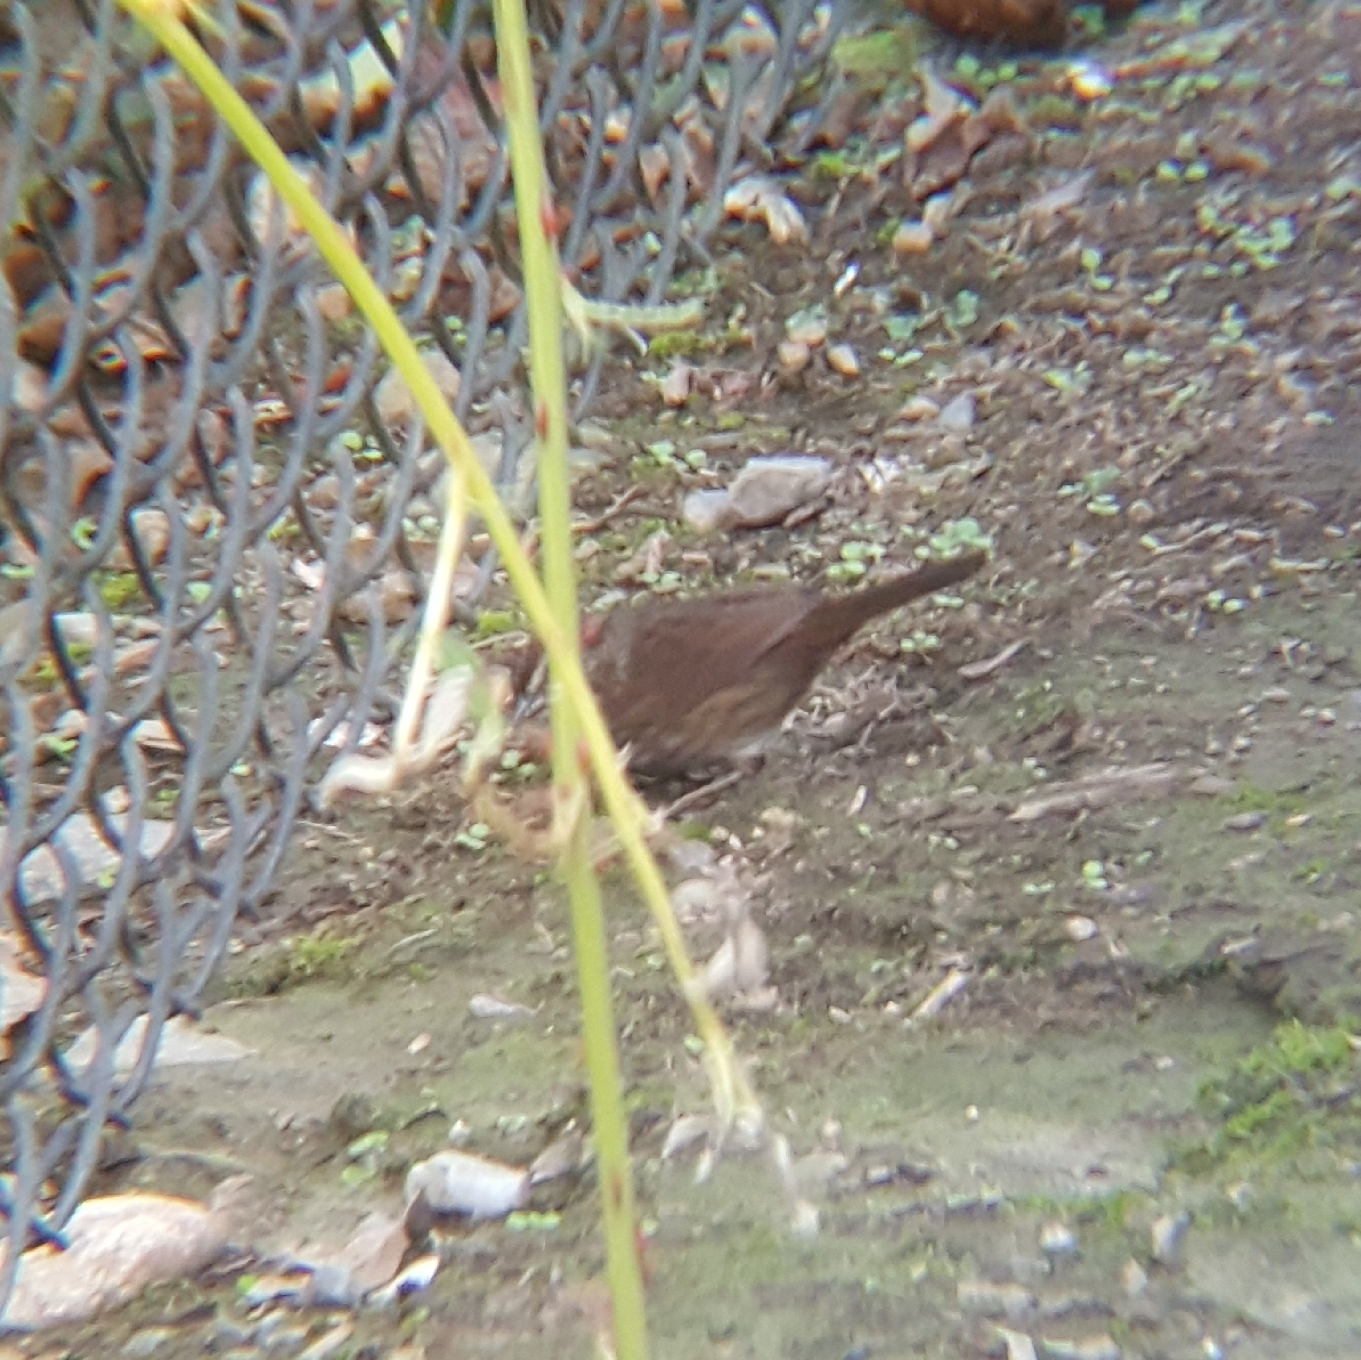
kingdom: Animalia
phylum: Chordata
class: Aves
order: Passeriformes
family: Passerellidae
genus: Melospiza
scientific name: Melospiza melodia
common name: Song sparrow
